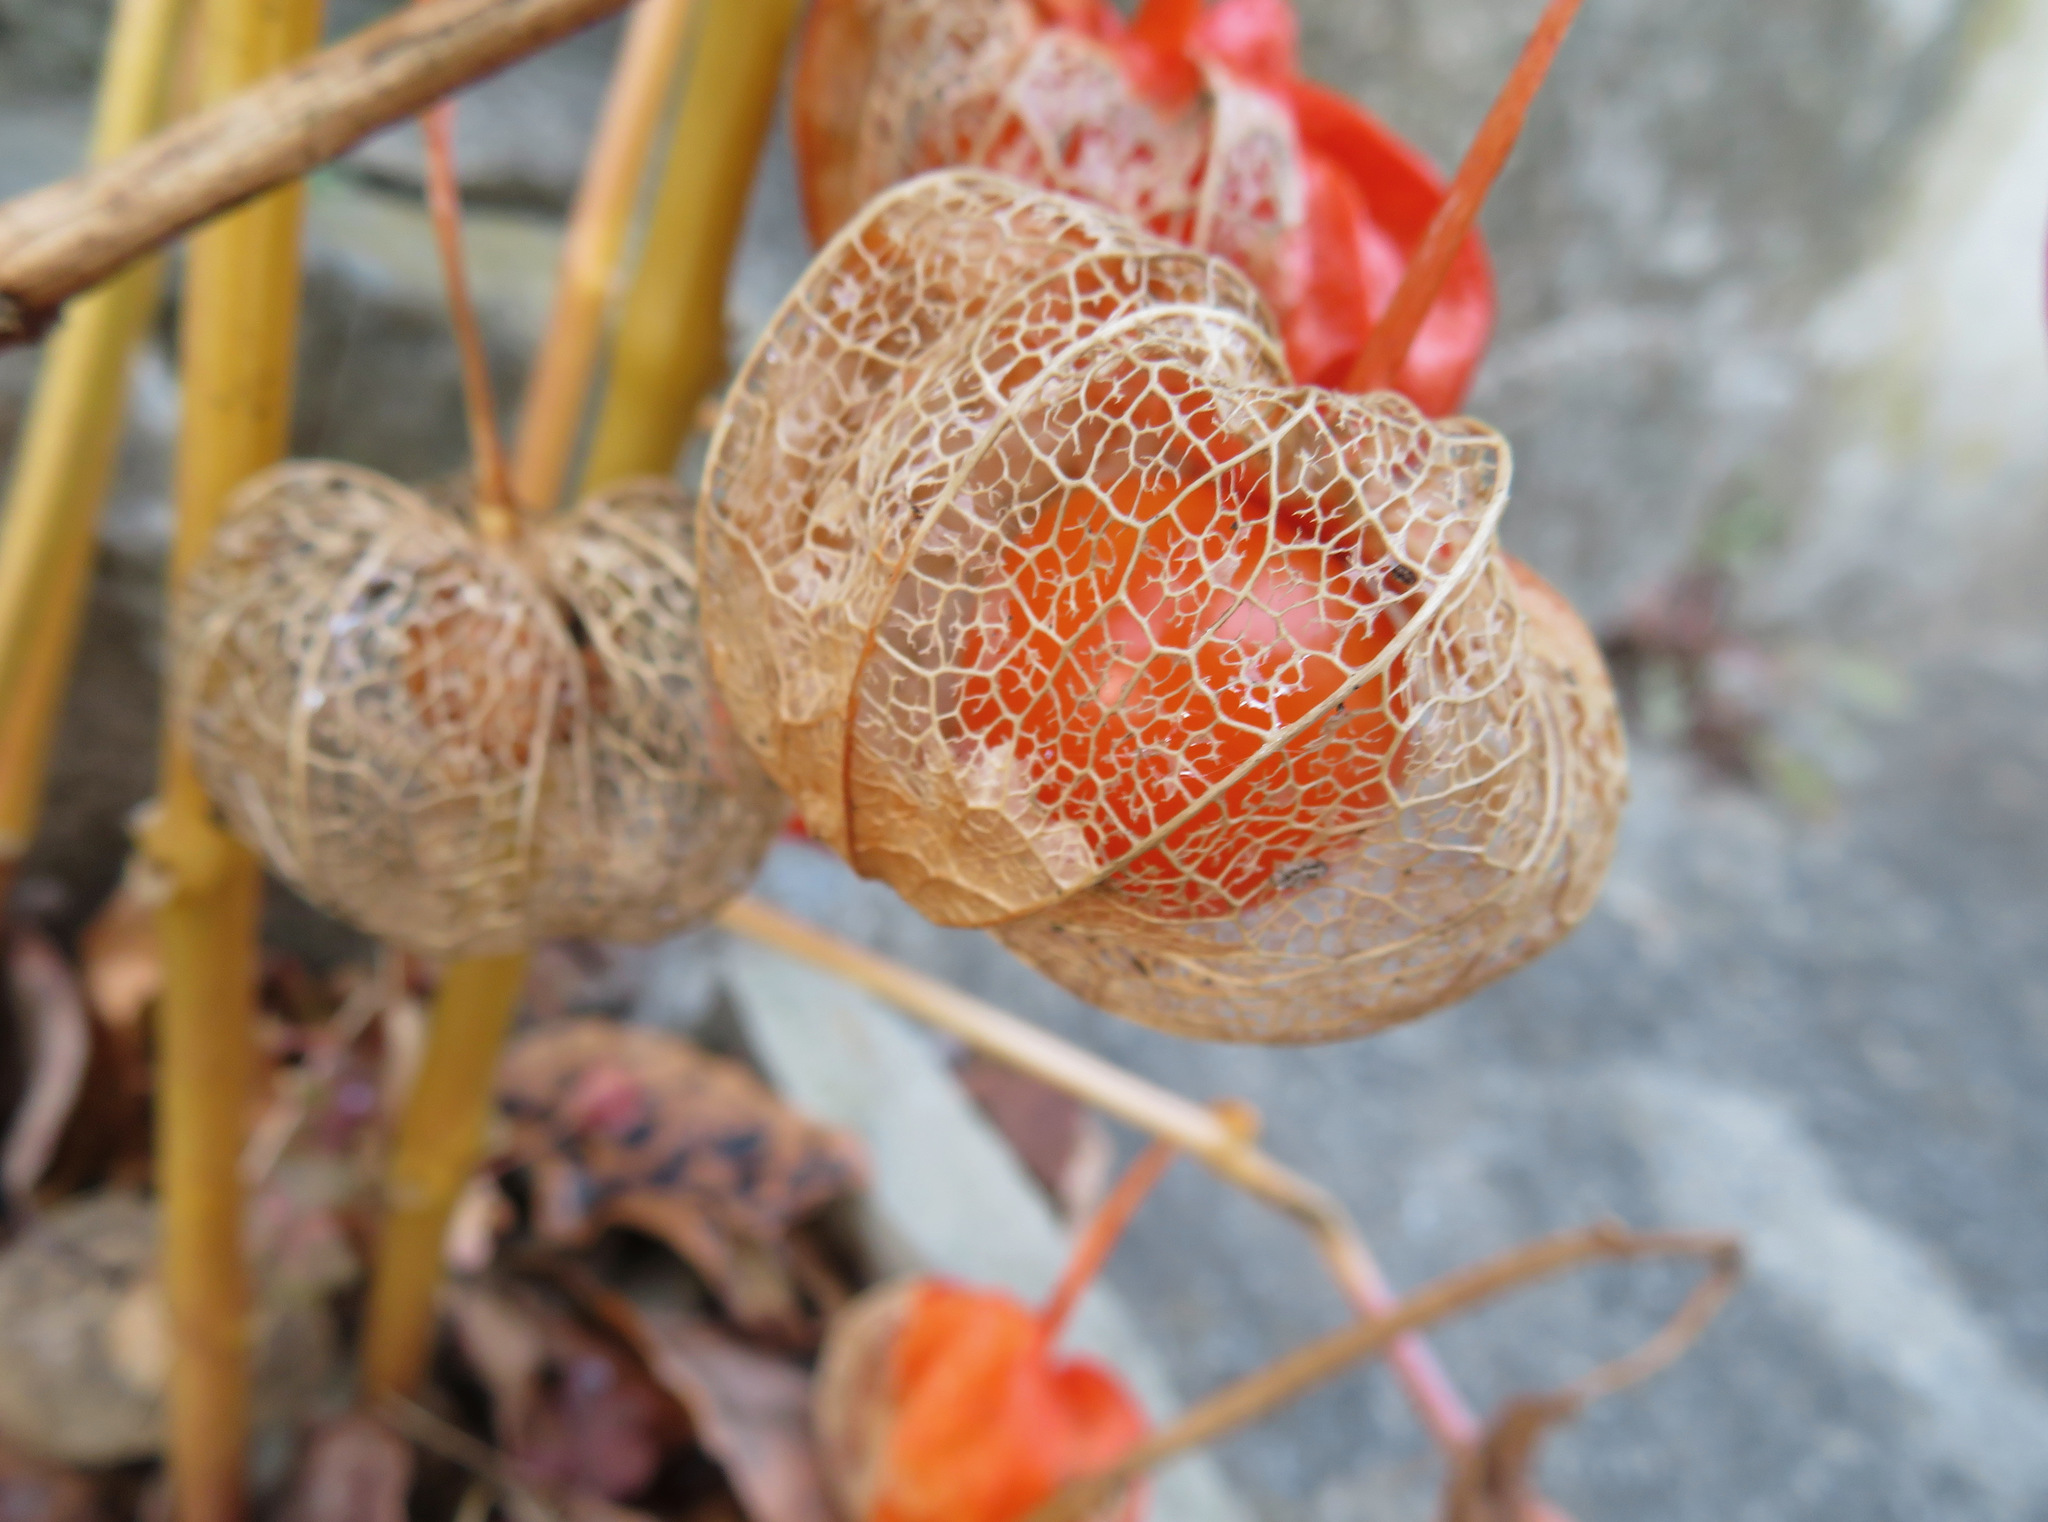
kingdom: Plantae
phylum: Tracheophyta
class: Magnoliopsida
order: Solanales
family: Solanaceae
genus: Alkekengi
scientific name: Alkekengi officinarum
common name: Japanese-lantern
